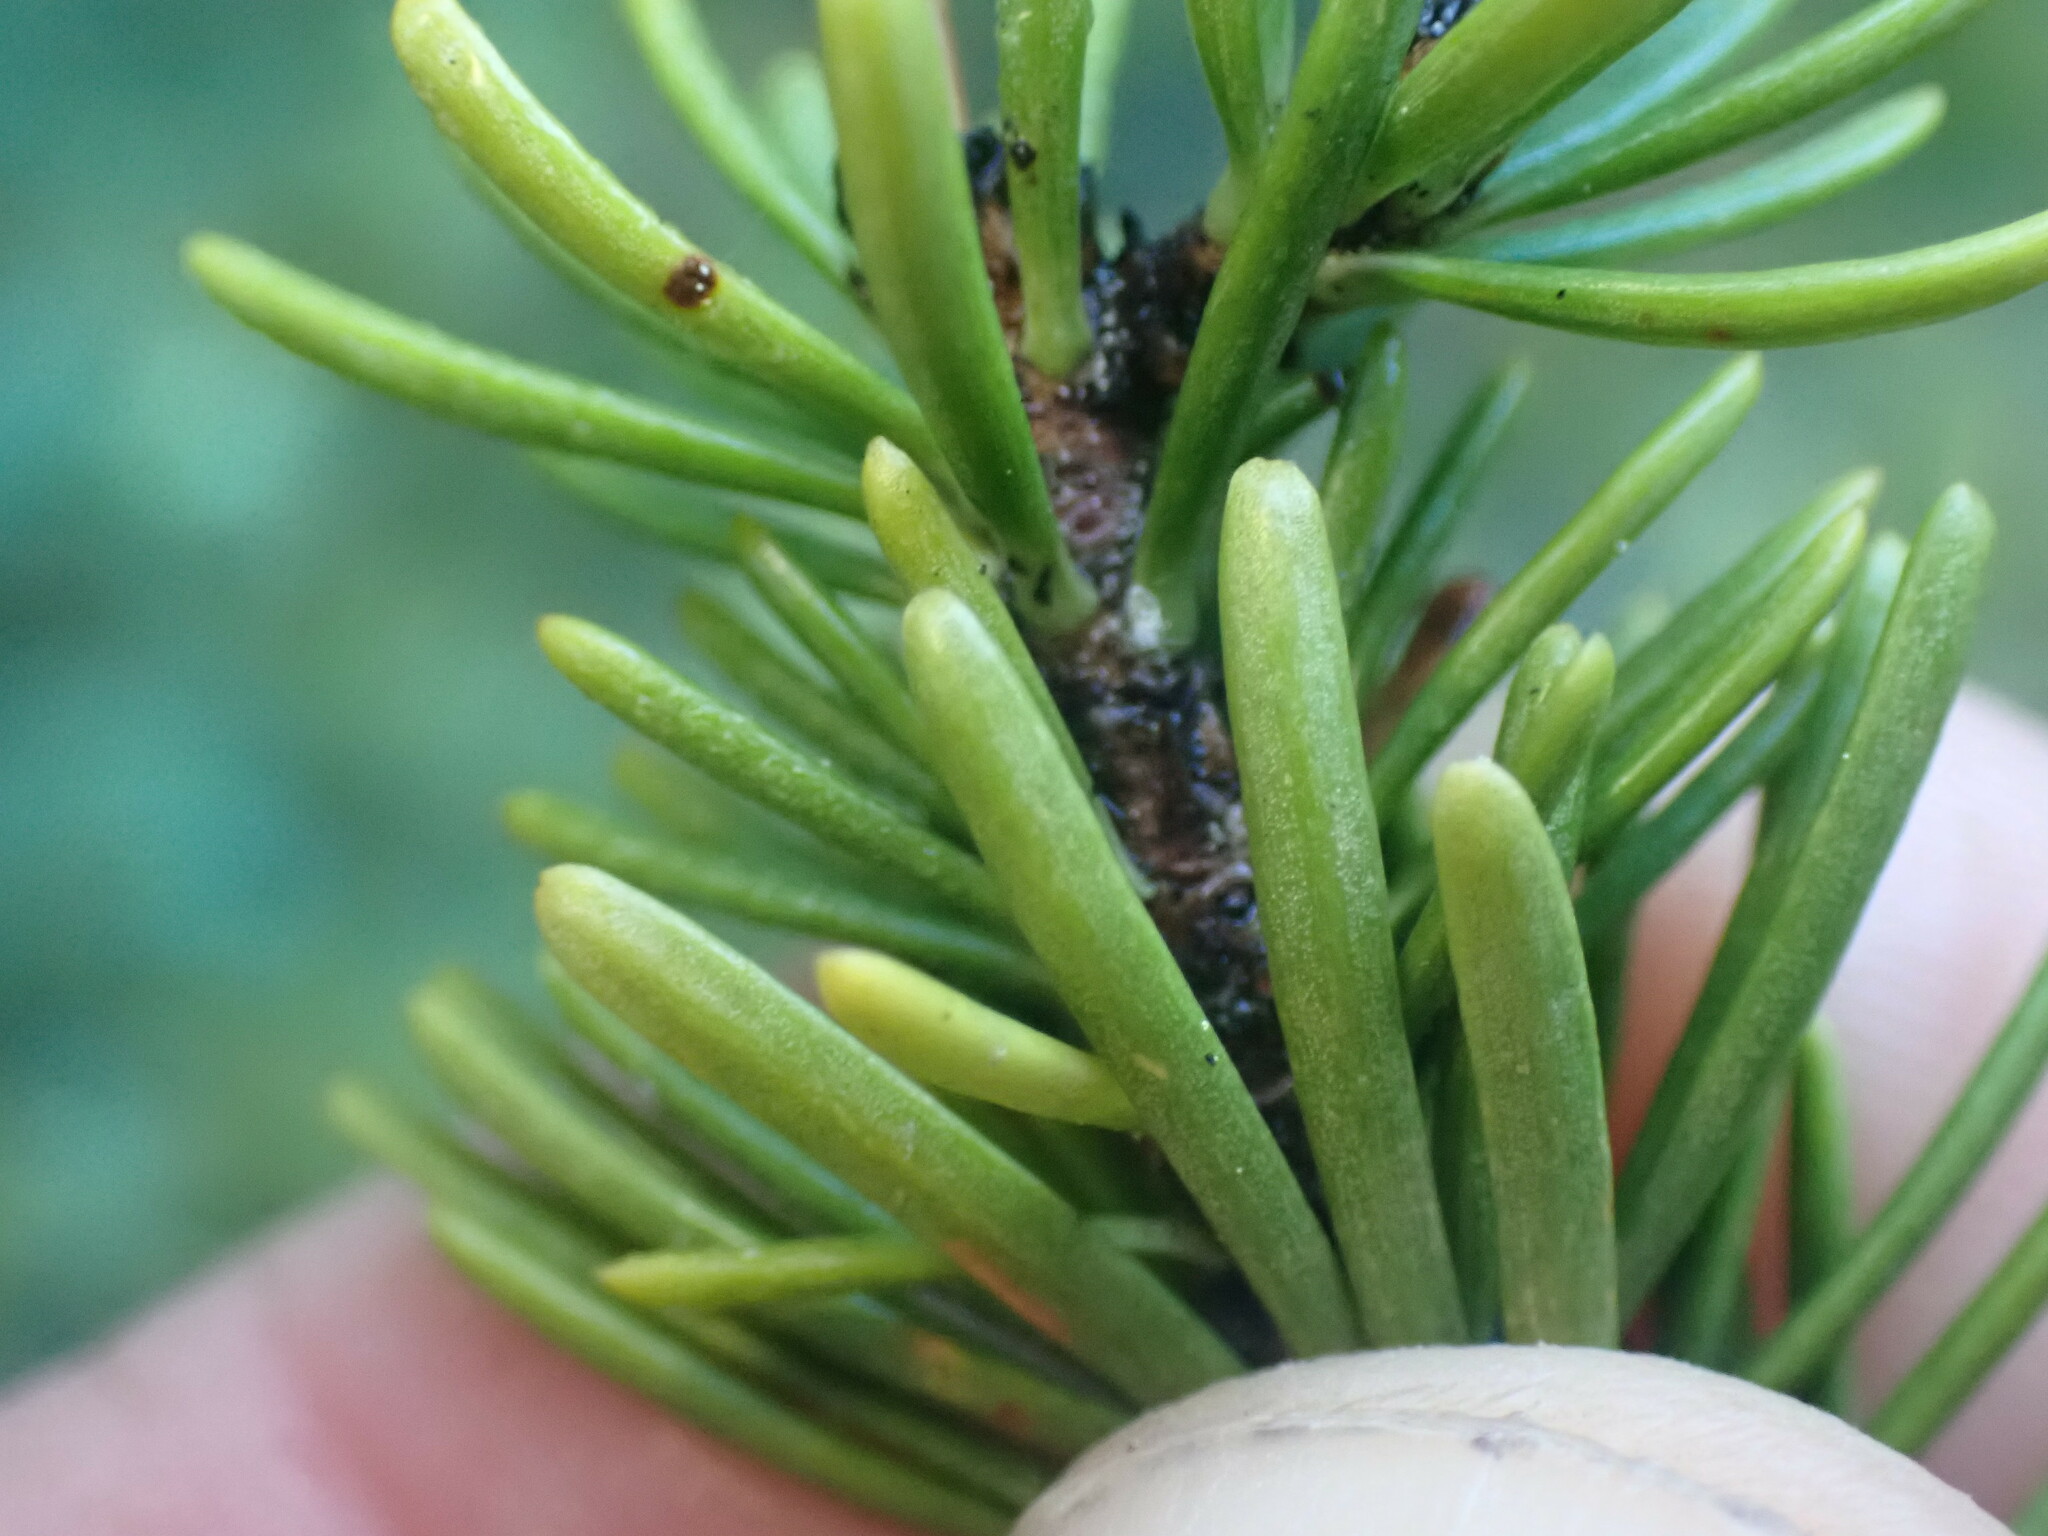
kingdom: Plantae
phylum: Tracheophyta
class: Pinopsida
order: Pinales
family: Pinaceae
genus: Abies
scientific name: Abies lasiocarpa
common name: Subalpine fir
